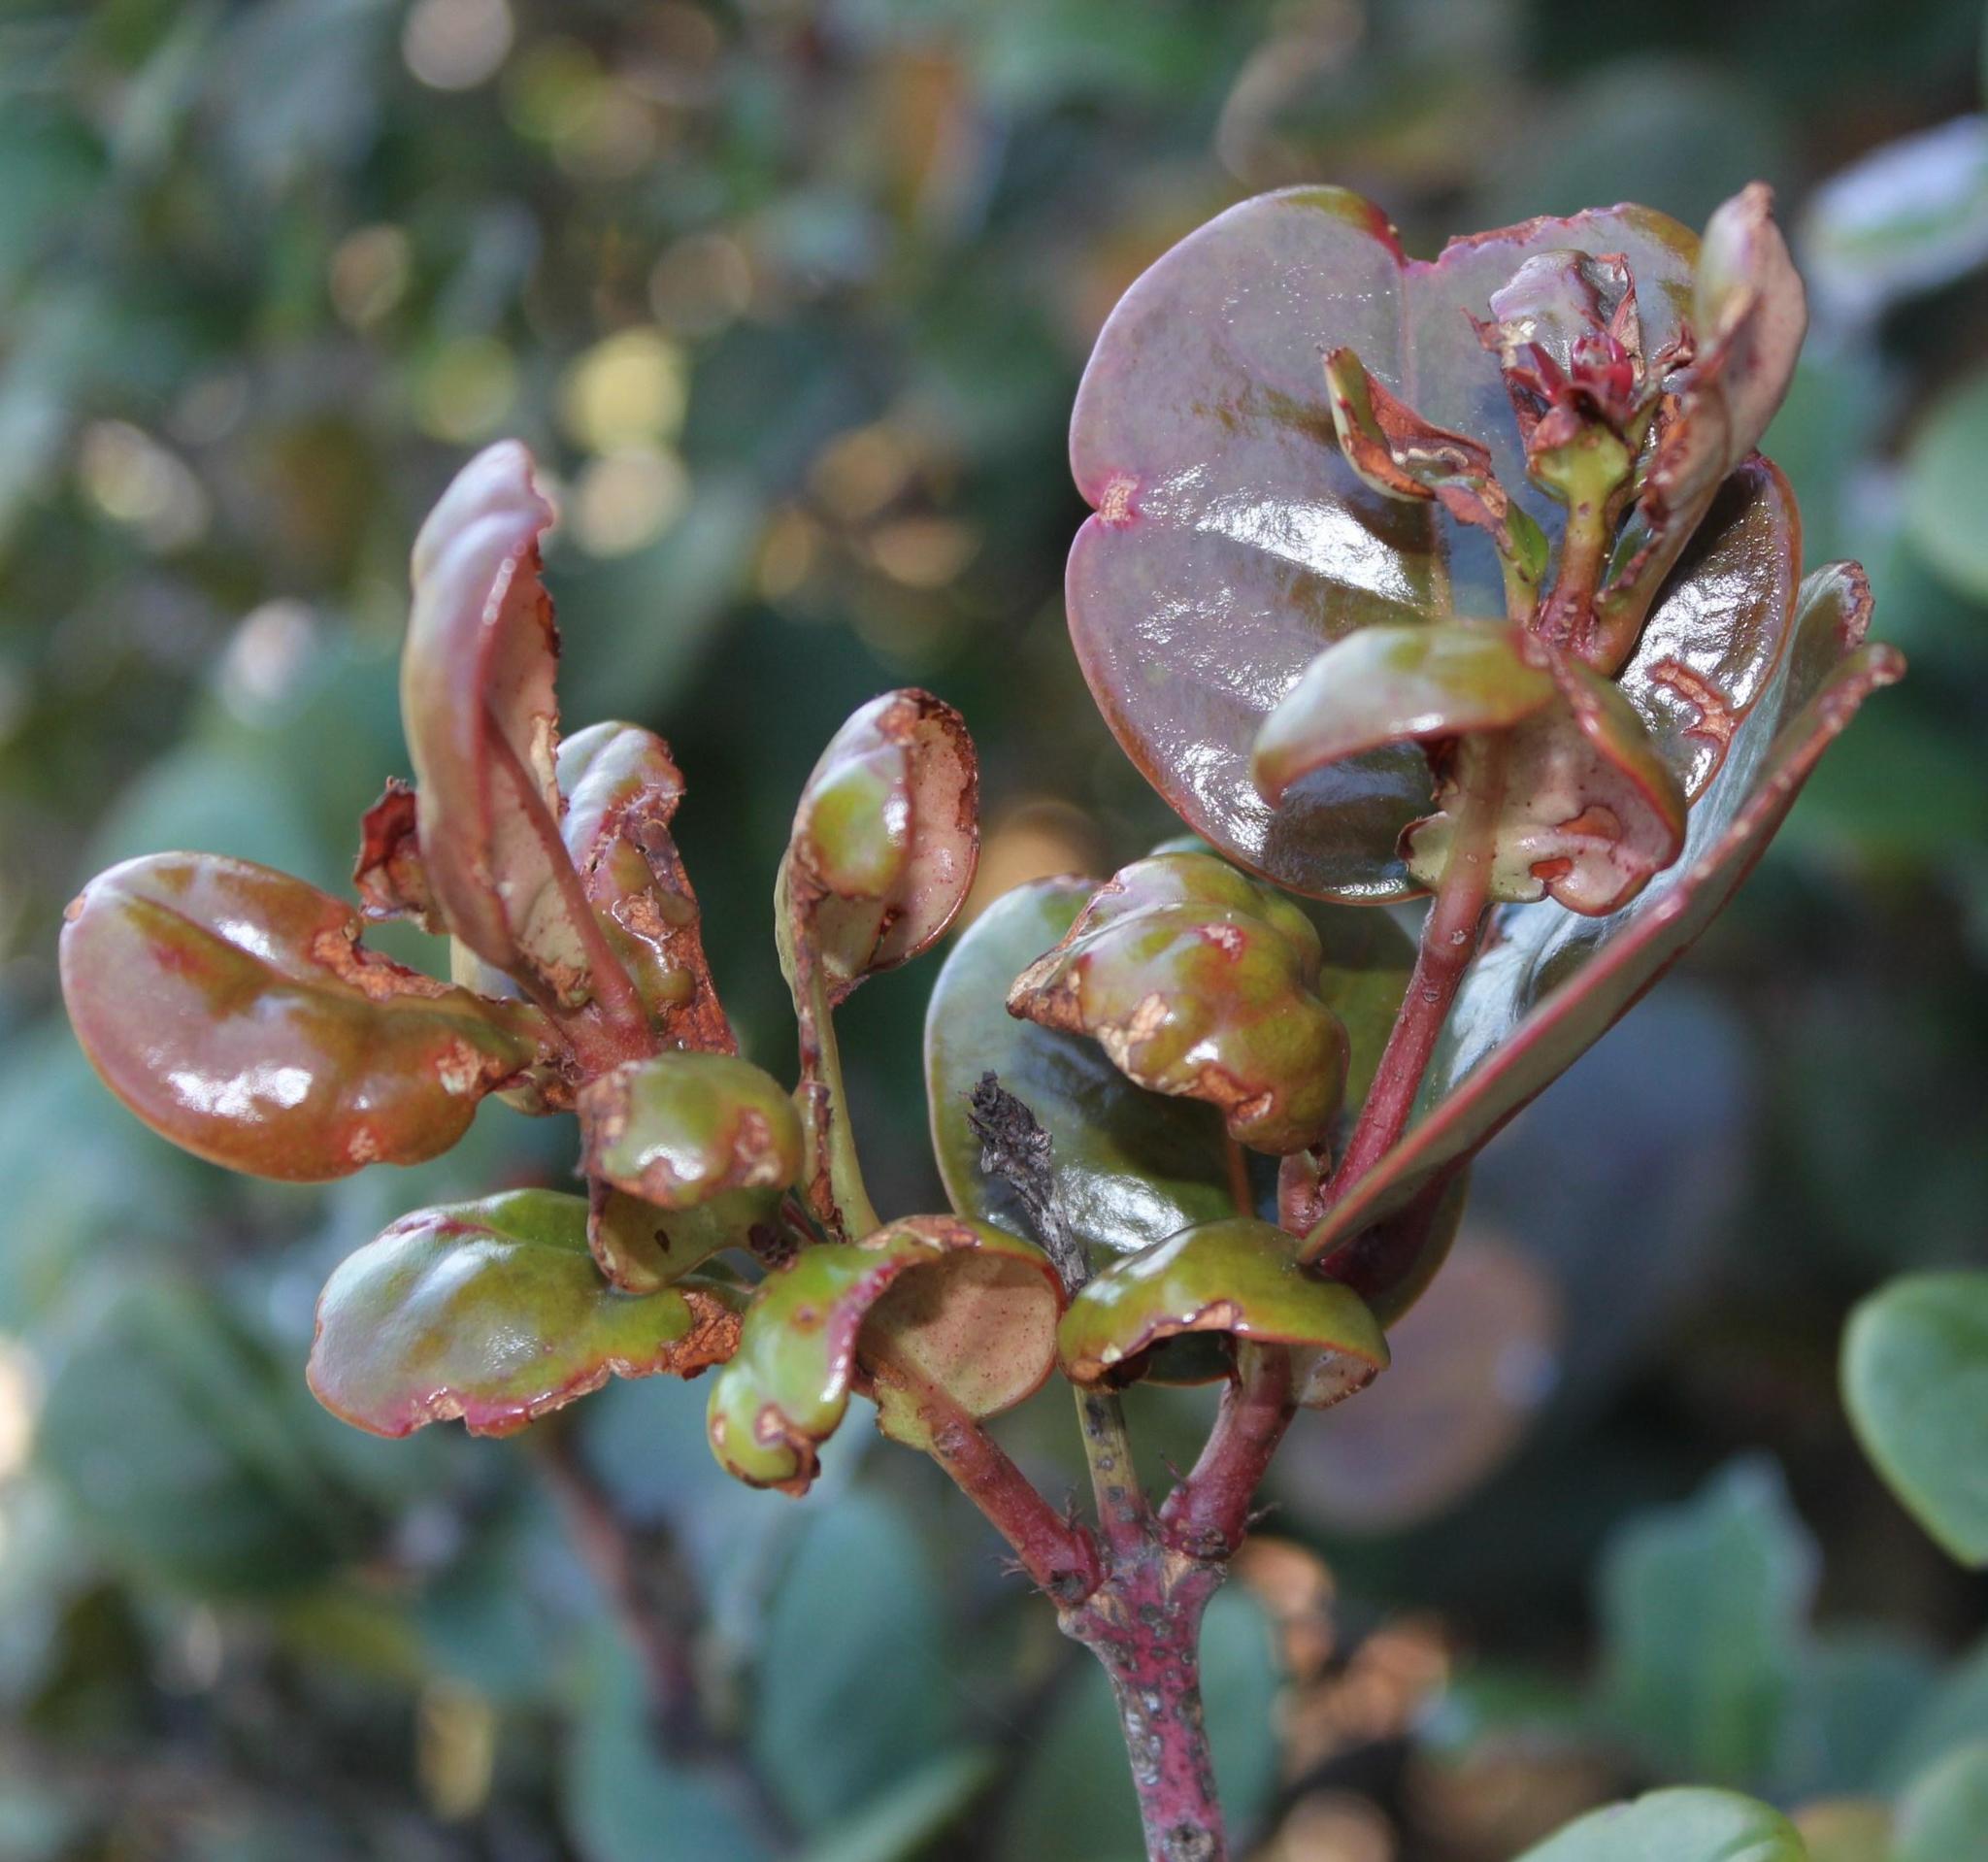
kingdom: Plantae
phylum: Tracheophyta
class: Magnoliopsida
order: Celastrales
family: Celastraceae
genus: Maurocenia
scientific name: Maurocenia frangula
